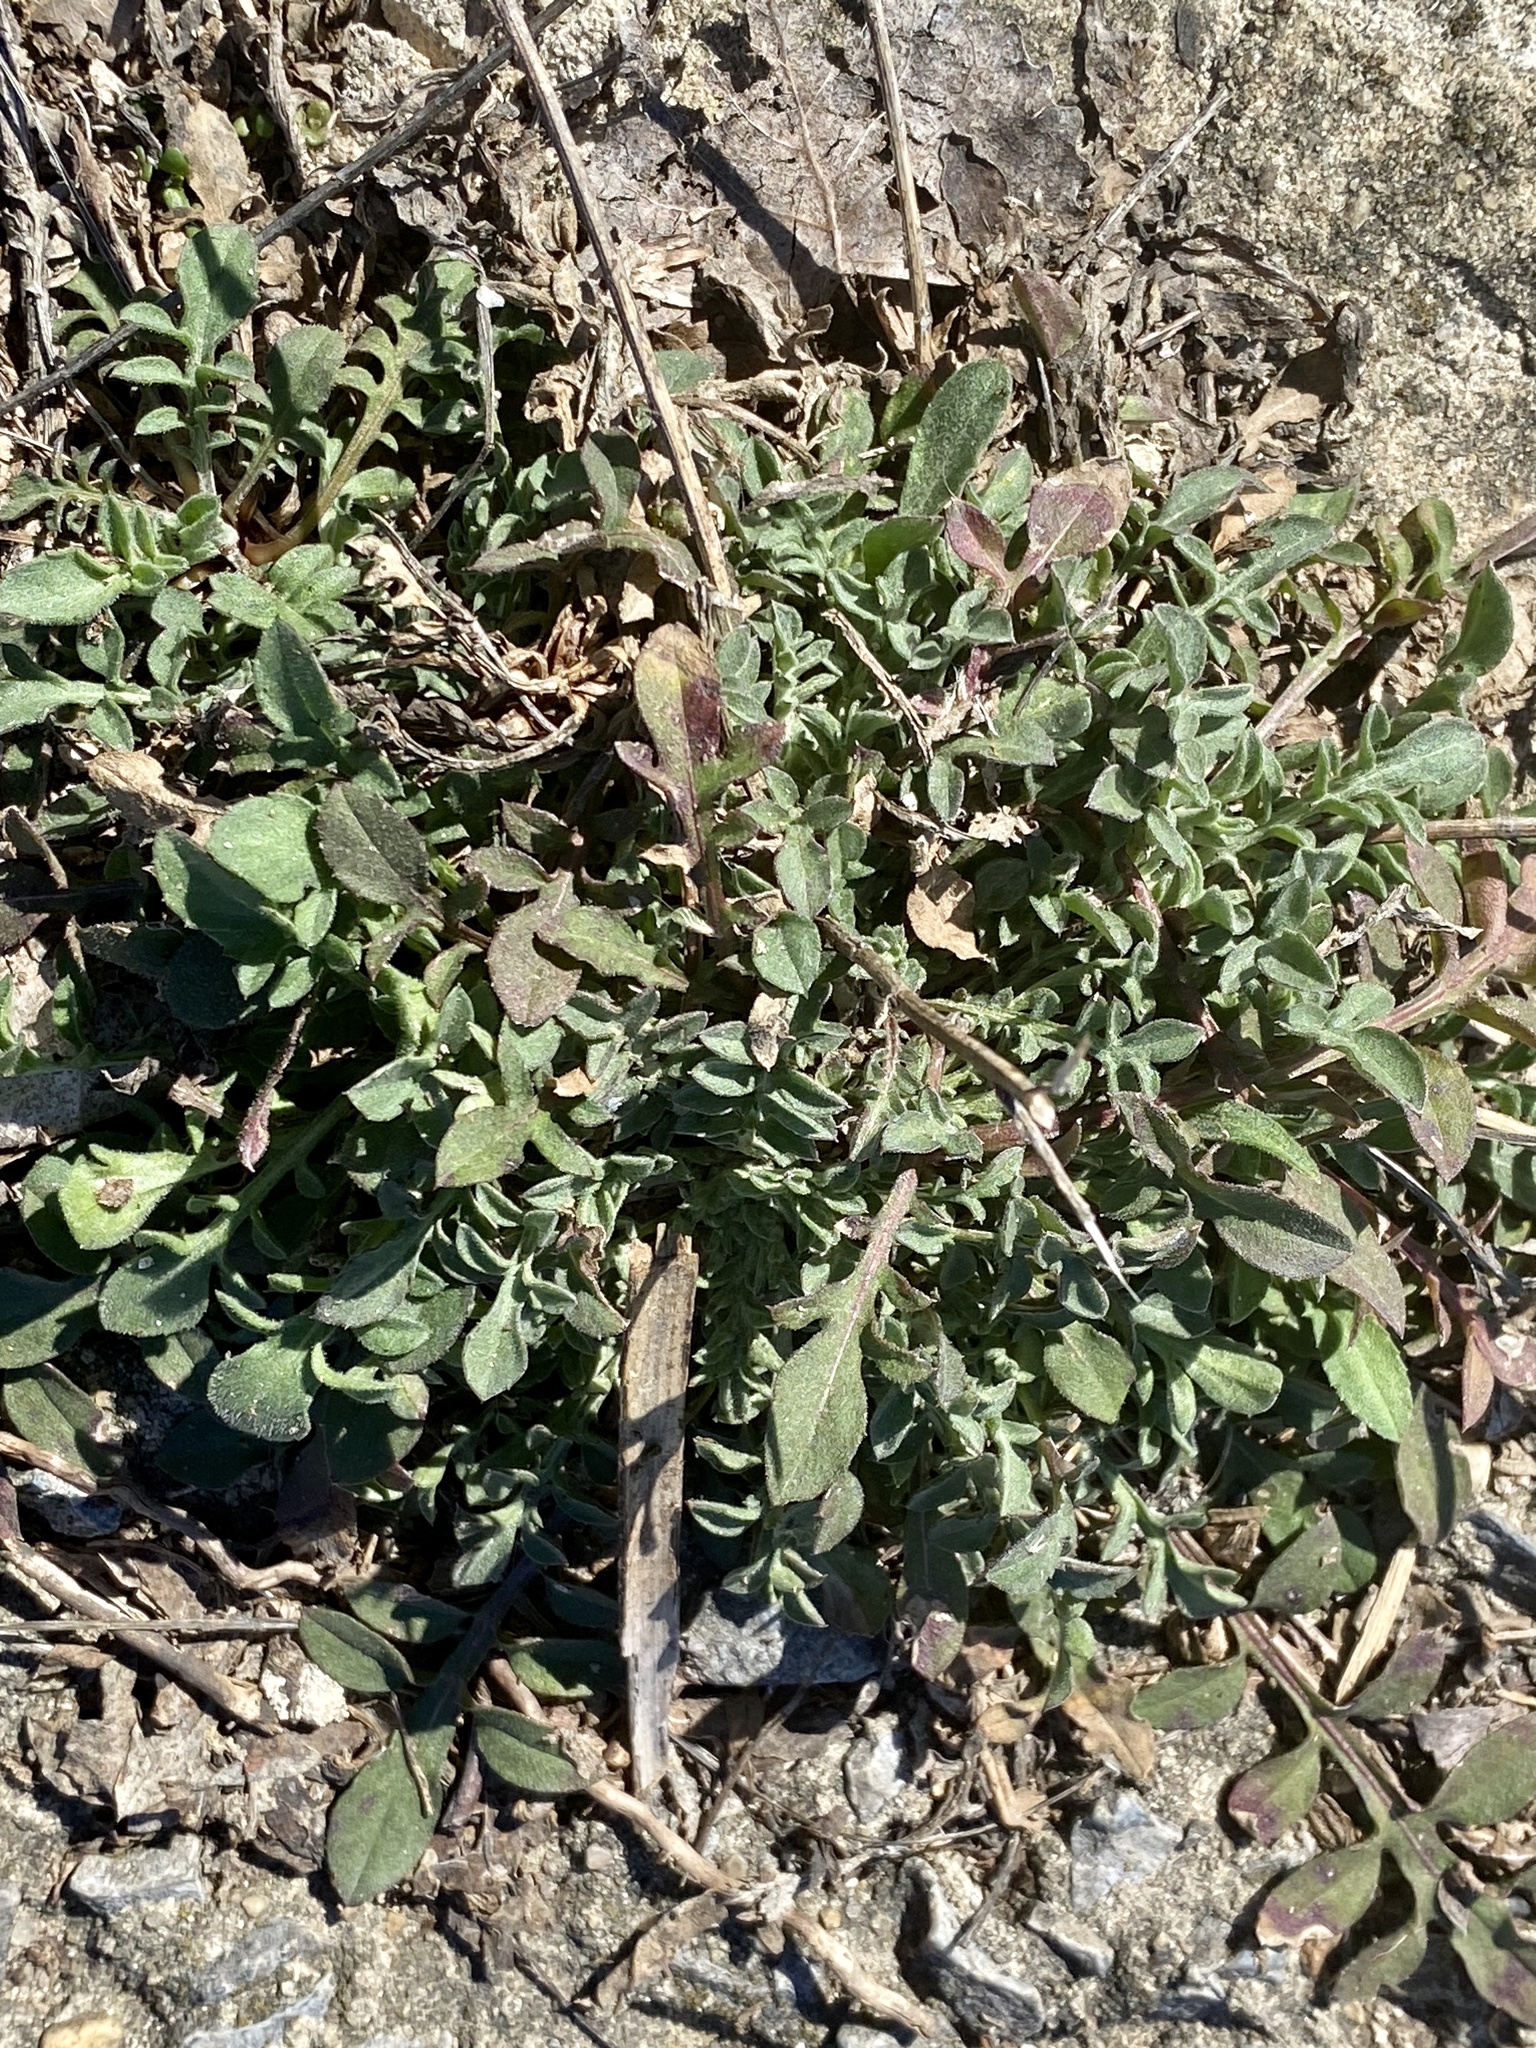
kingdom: Plantae
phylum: Tracheophyta
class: Magnoliopsida
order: Asterales
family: Asteraceae
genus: Centaurea
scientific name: Centaurea stoebe
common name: Spotted knapweed
